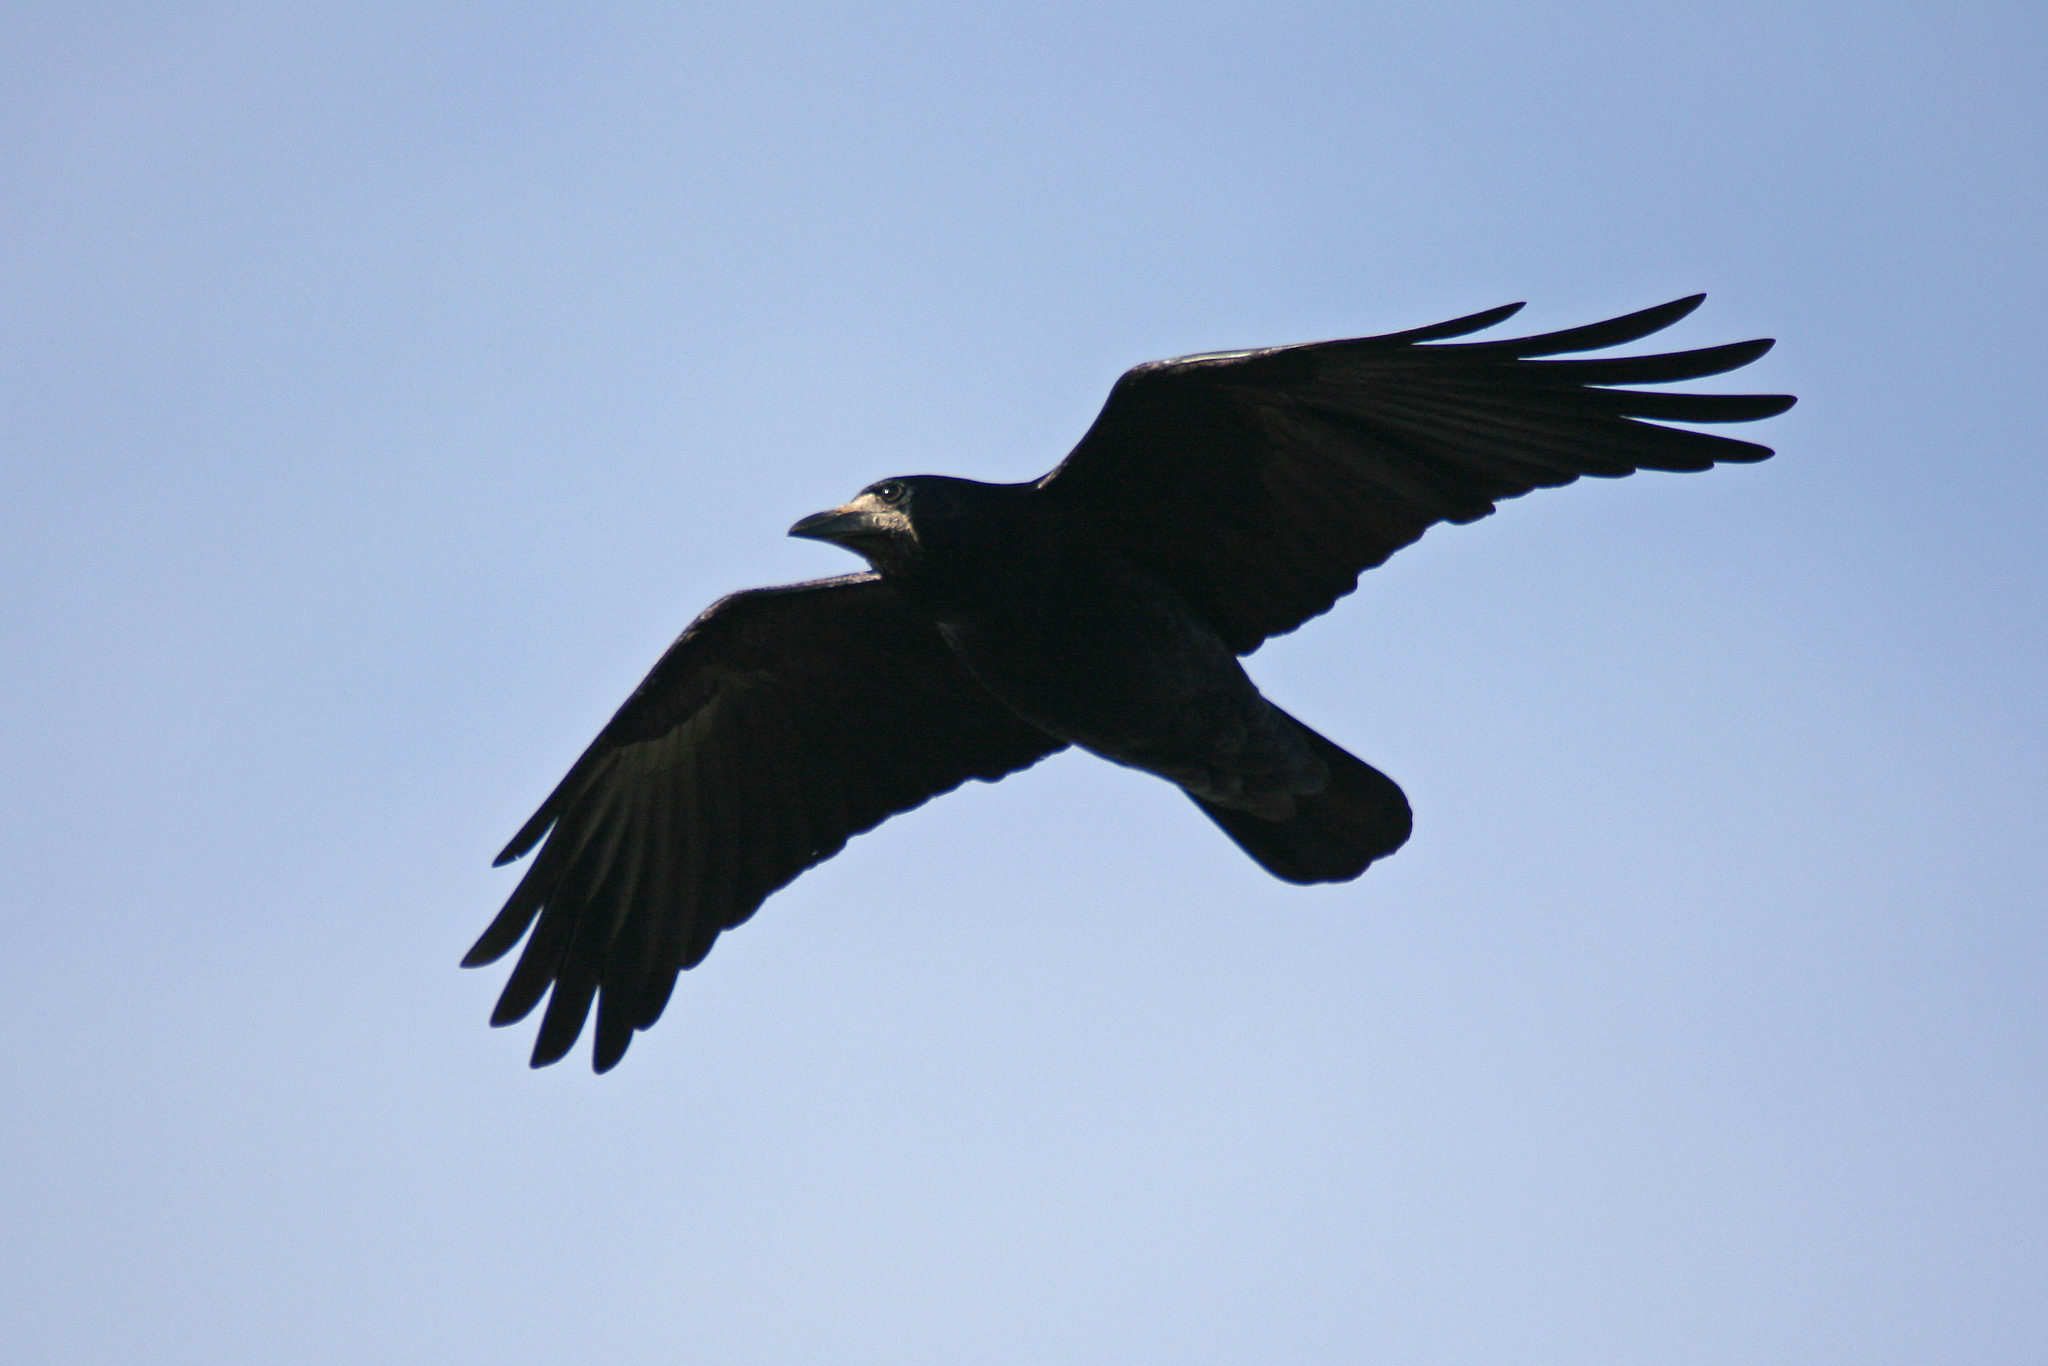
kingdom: Animalia
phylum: Chordata
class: Aves
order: Passeriformes
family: Corvidae
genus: Corvus
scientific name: Corvus frugilegus
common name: Rook
